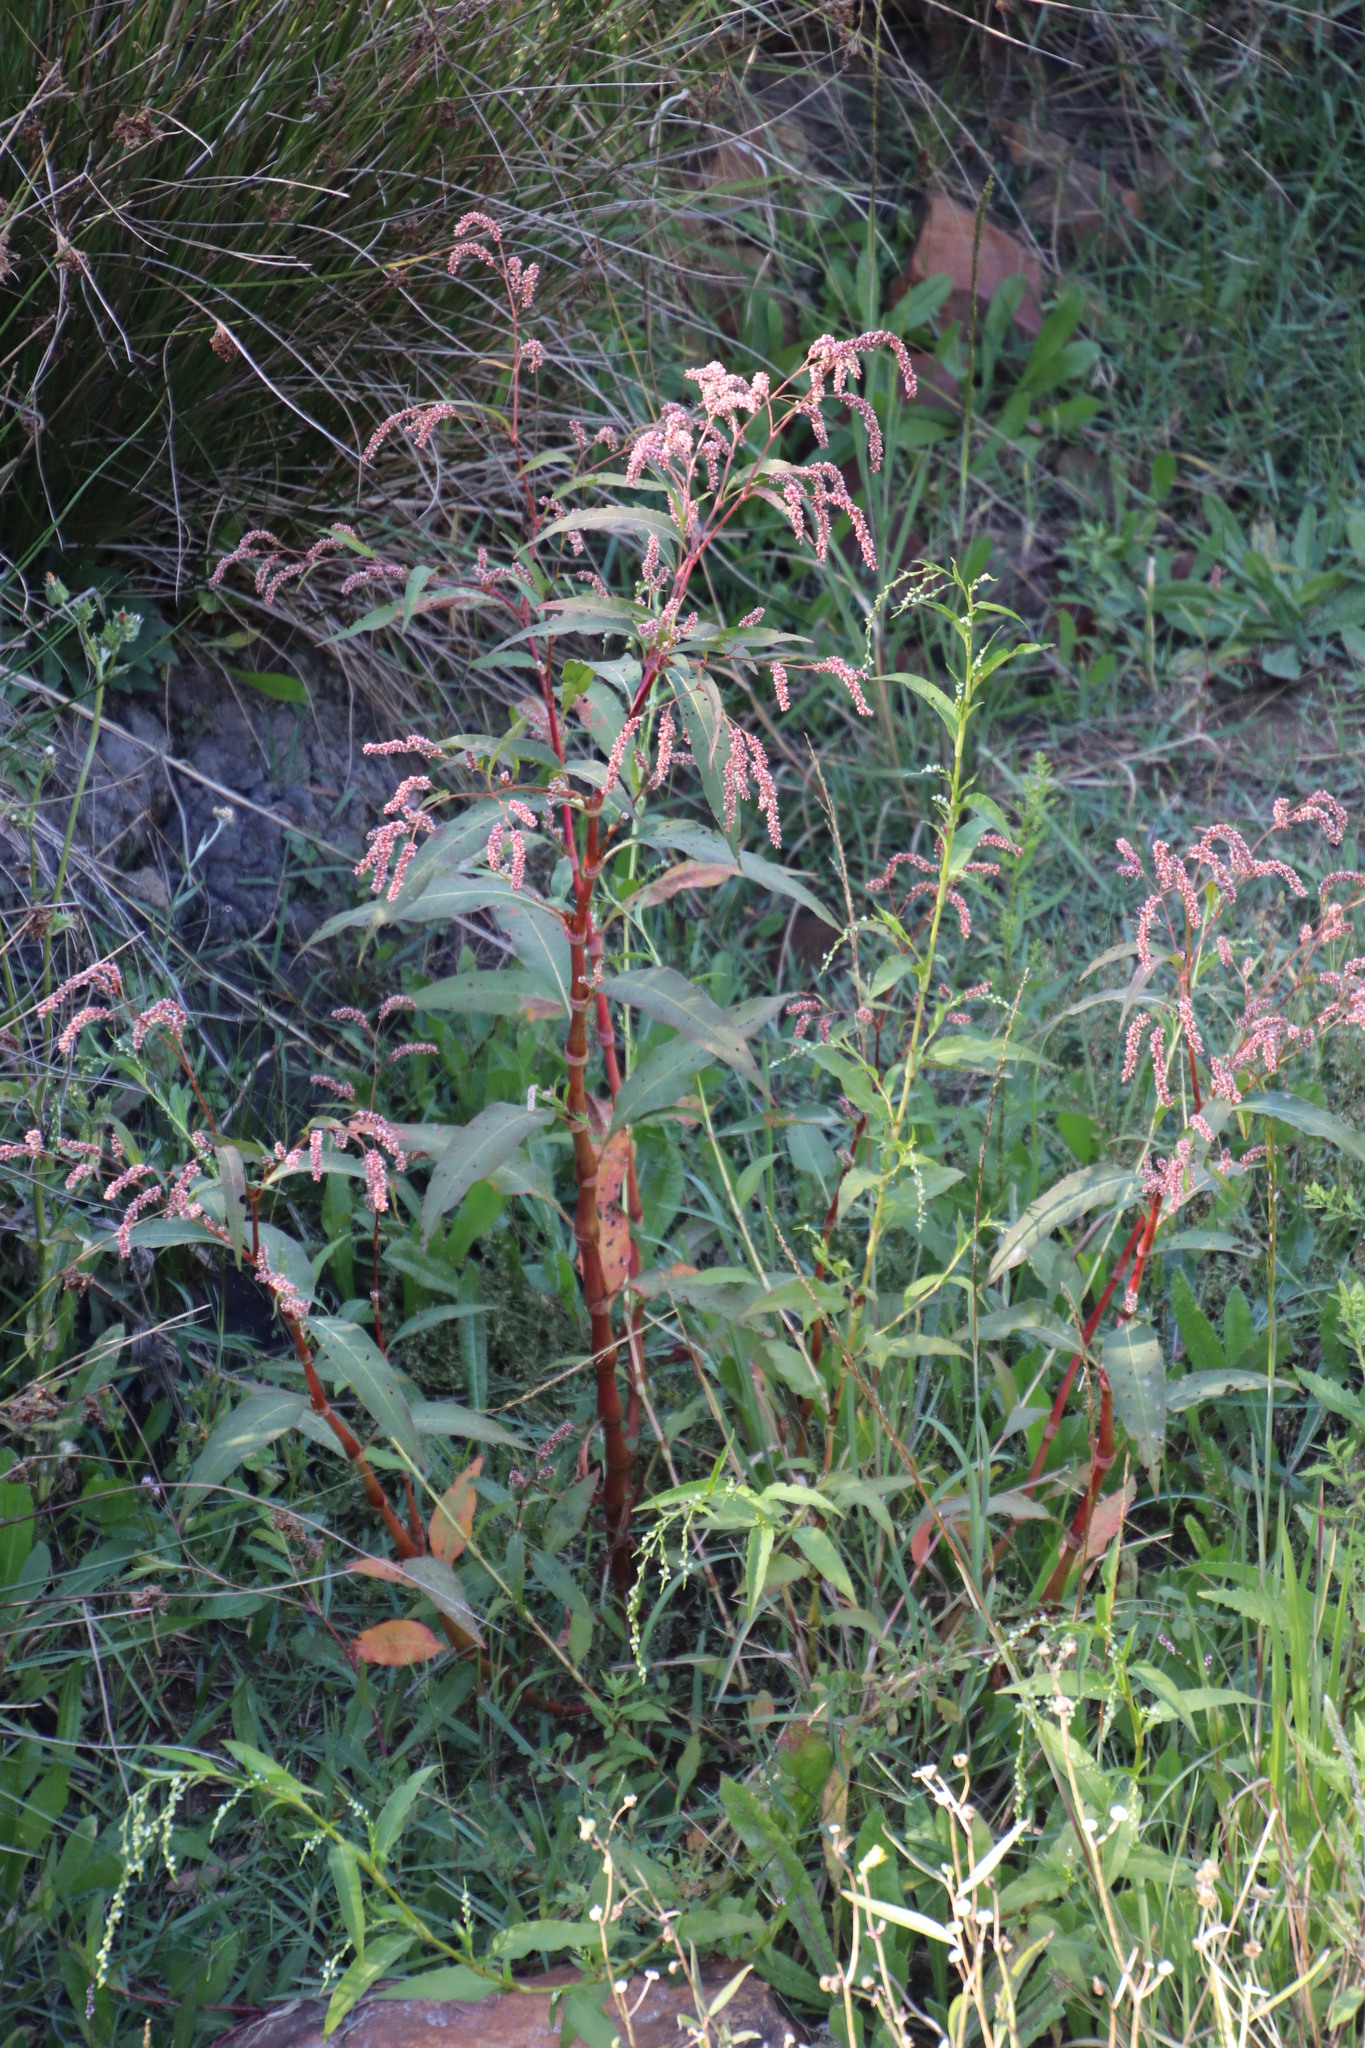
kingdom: Plantae
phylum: Tracheophyta
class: Magnoliopsida
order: Caryophyllales
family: Polygonaceae
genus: Persicaria
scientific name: Persicaria lapathifolia
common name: Curlytop knotweed
